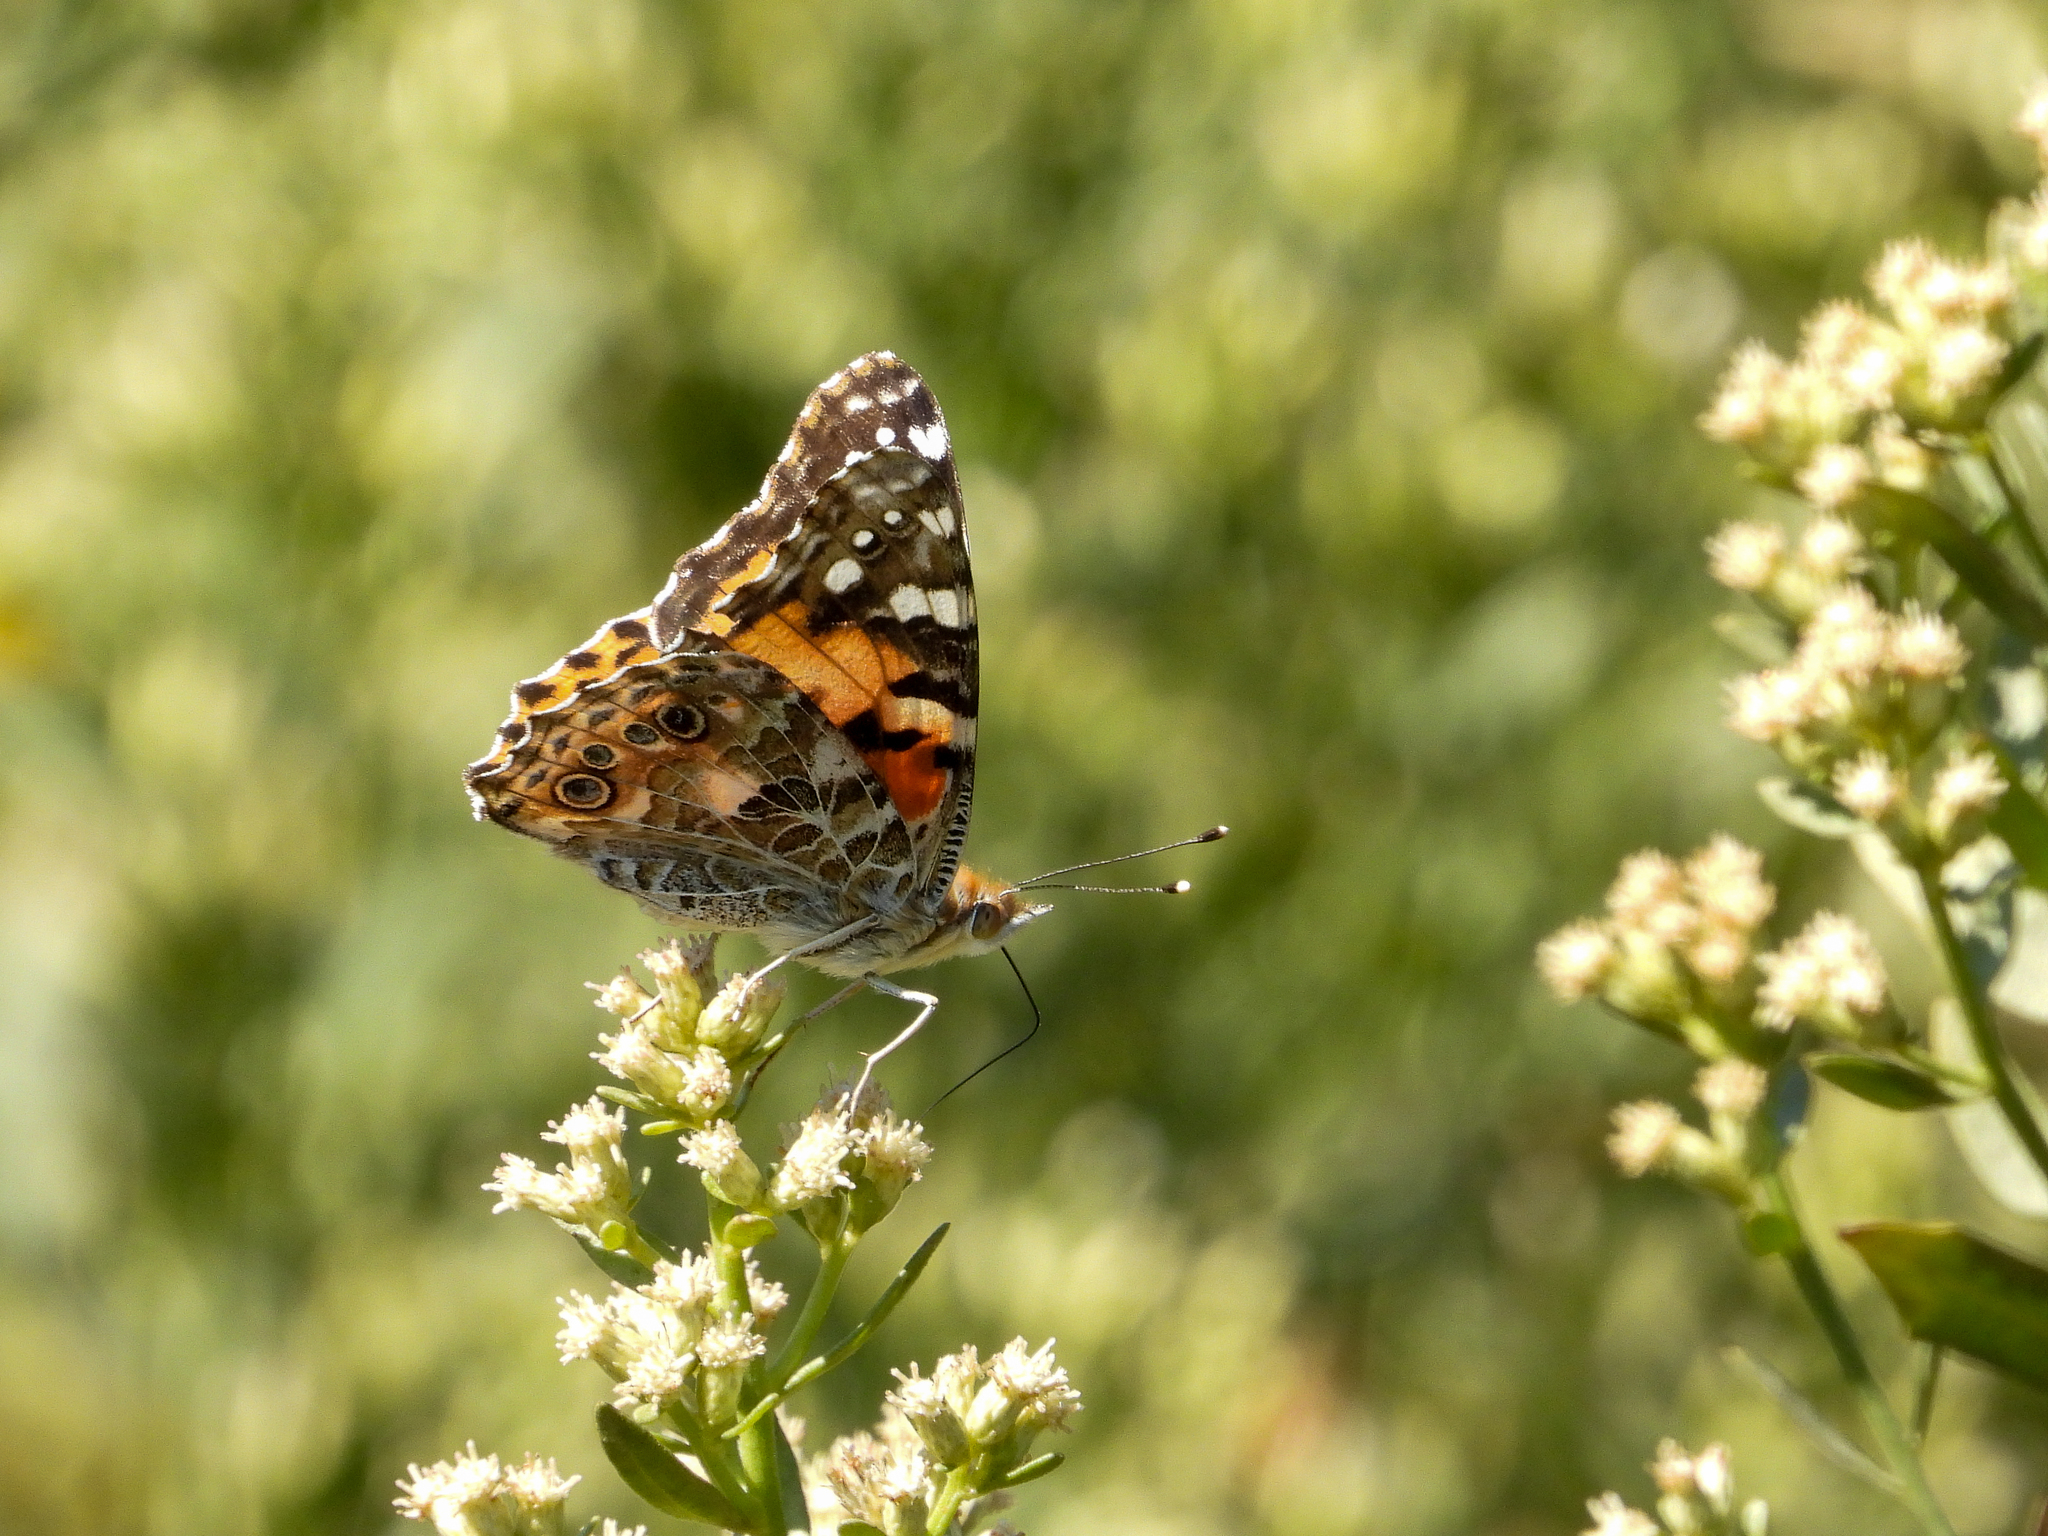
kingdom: Animalia
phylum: Arthropoda
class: Insecta
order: Lepidoptera
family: Nymphalidae
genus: Vanessa
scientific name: Vanessa cardui
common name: Painted lady
